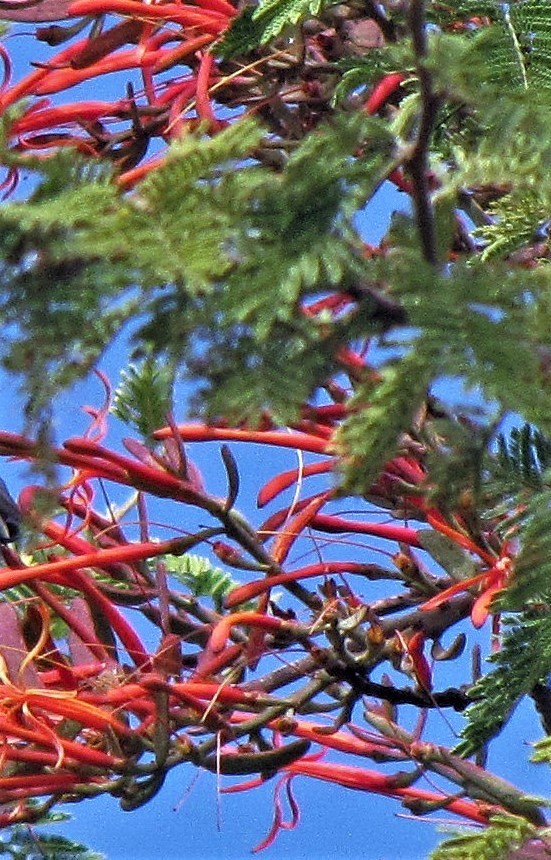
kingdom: Plantae
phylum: Tracheophyta
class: Magnoliopsida
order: Santalales
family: Loranthaceae
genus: Ligaria
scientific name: Ligaria cuneifolia
